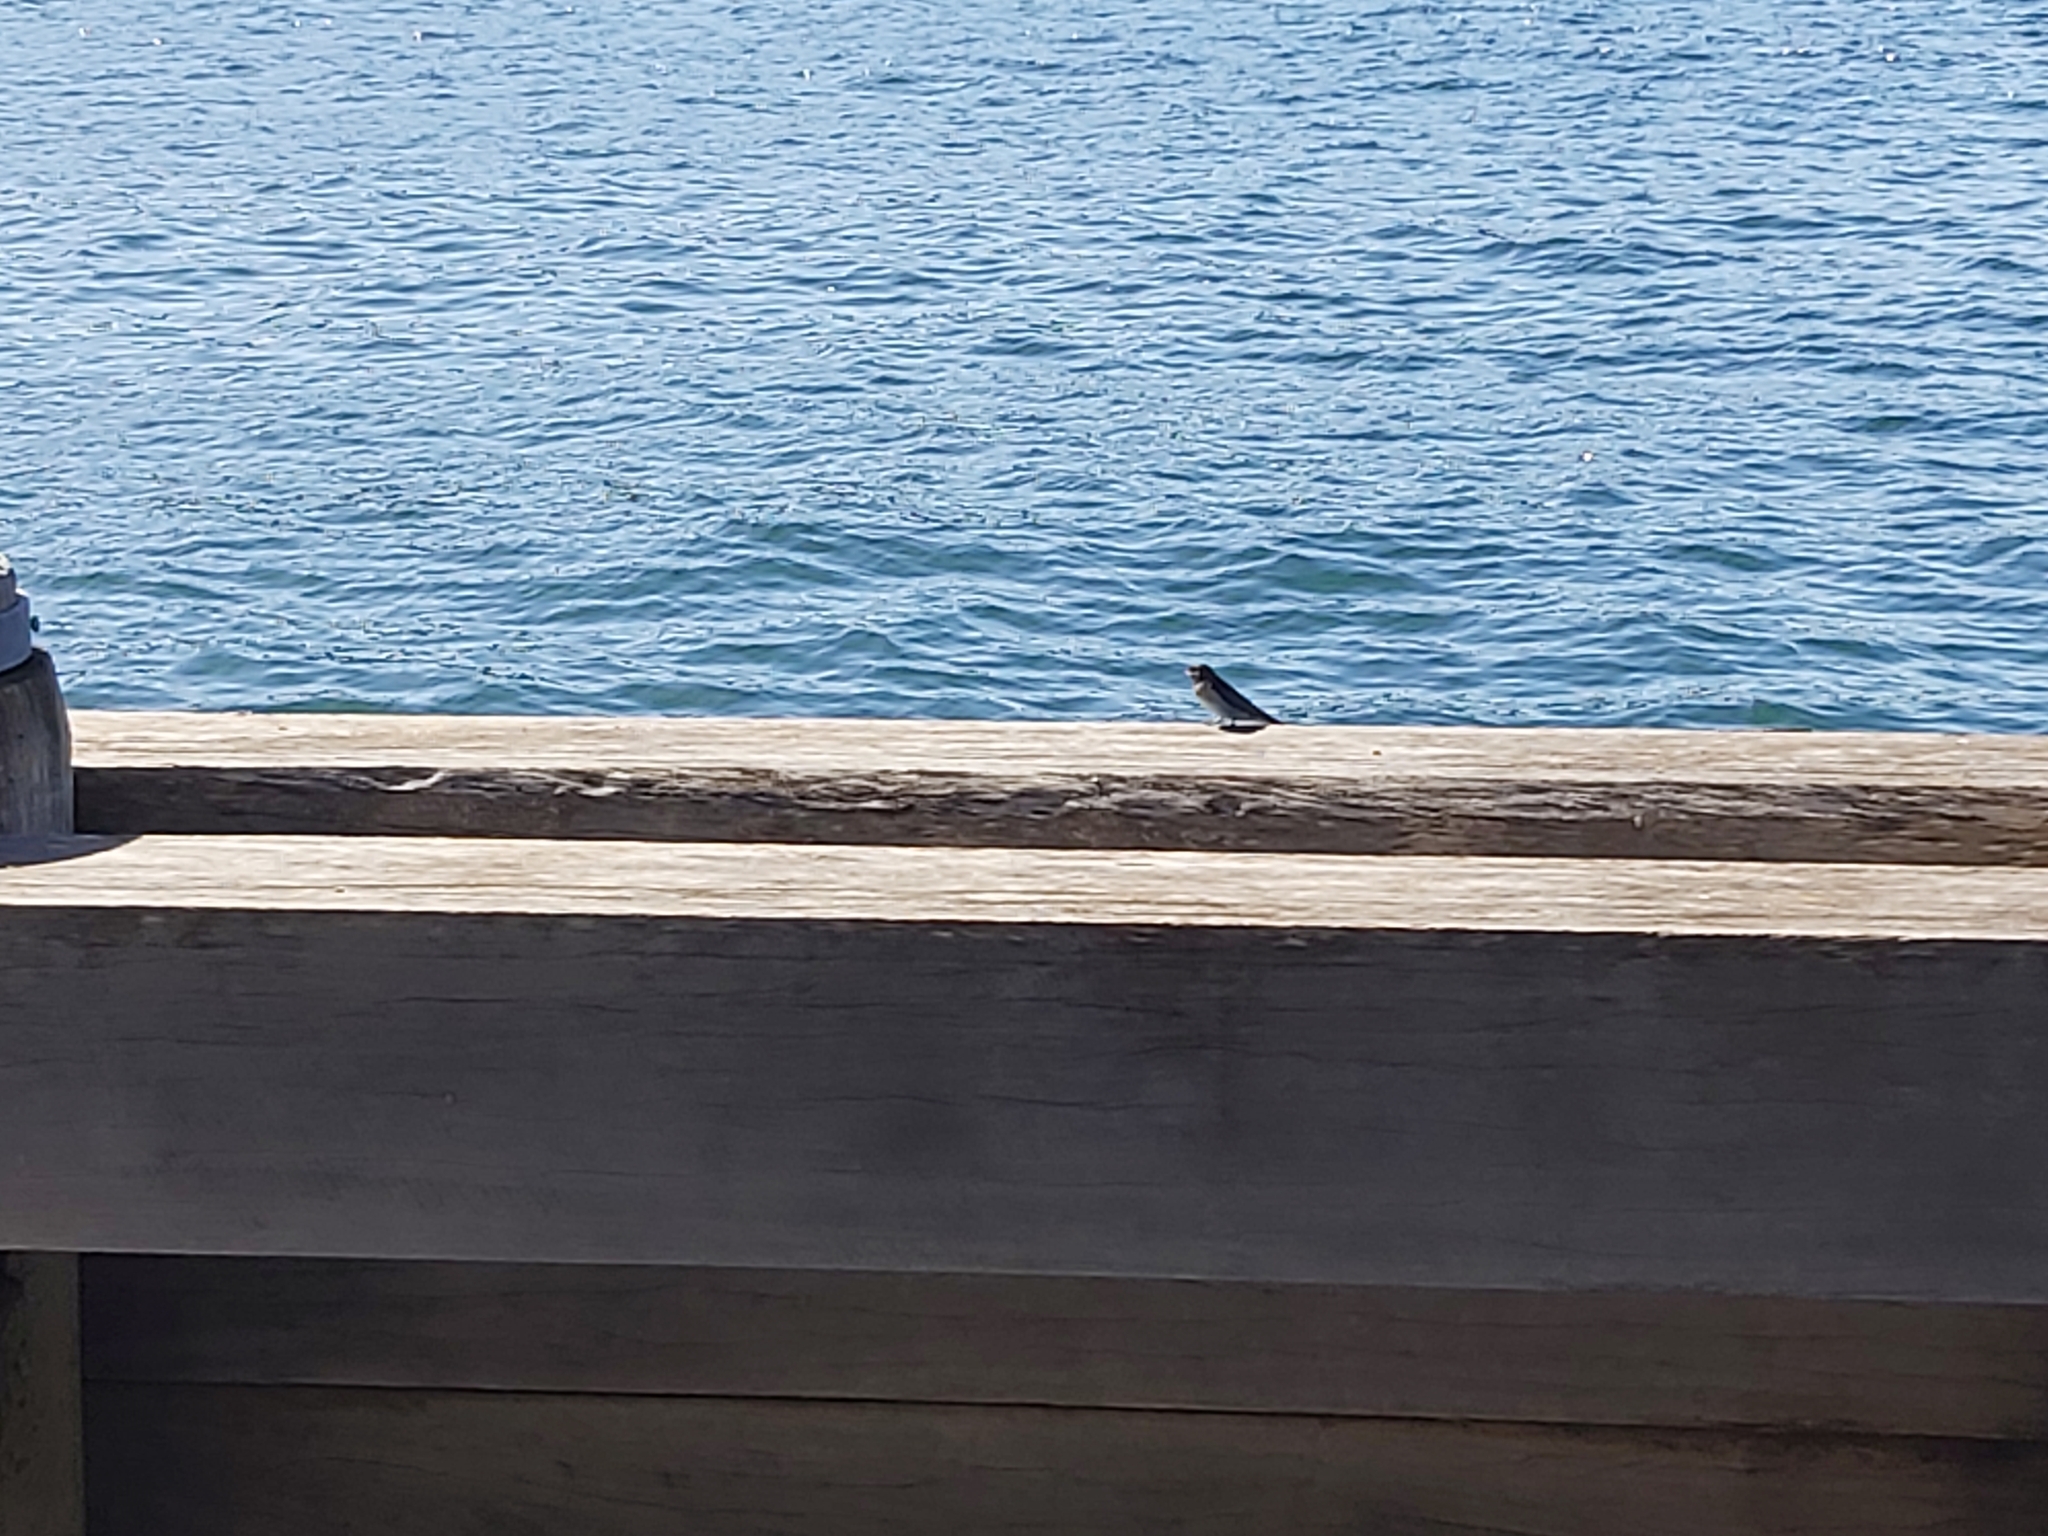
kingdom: Animalia
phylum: Chordata
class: Aves
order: Passeriformes
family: Hirundinidae
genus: Hirundo
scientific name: Hirundo neoxena
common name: Welcome swallow
